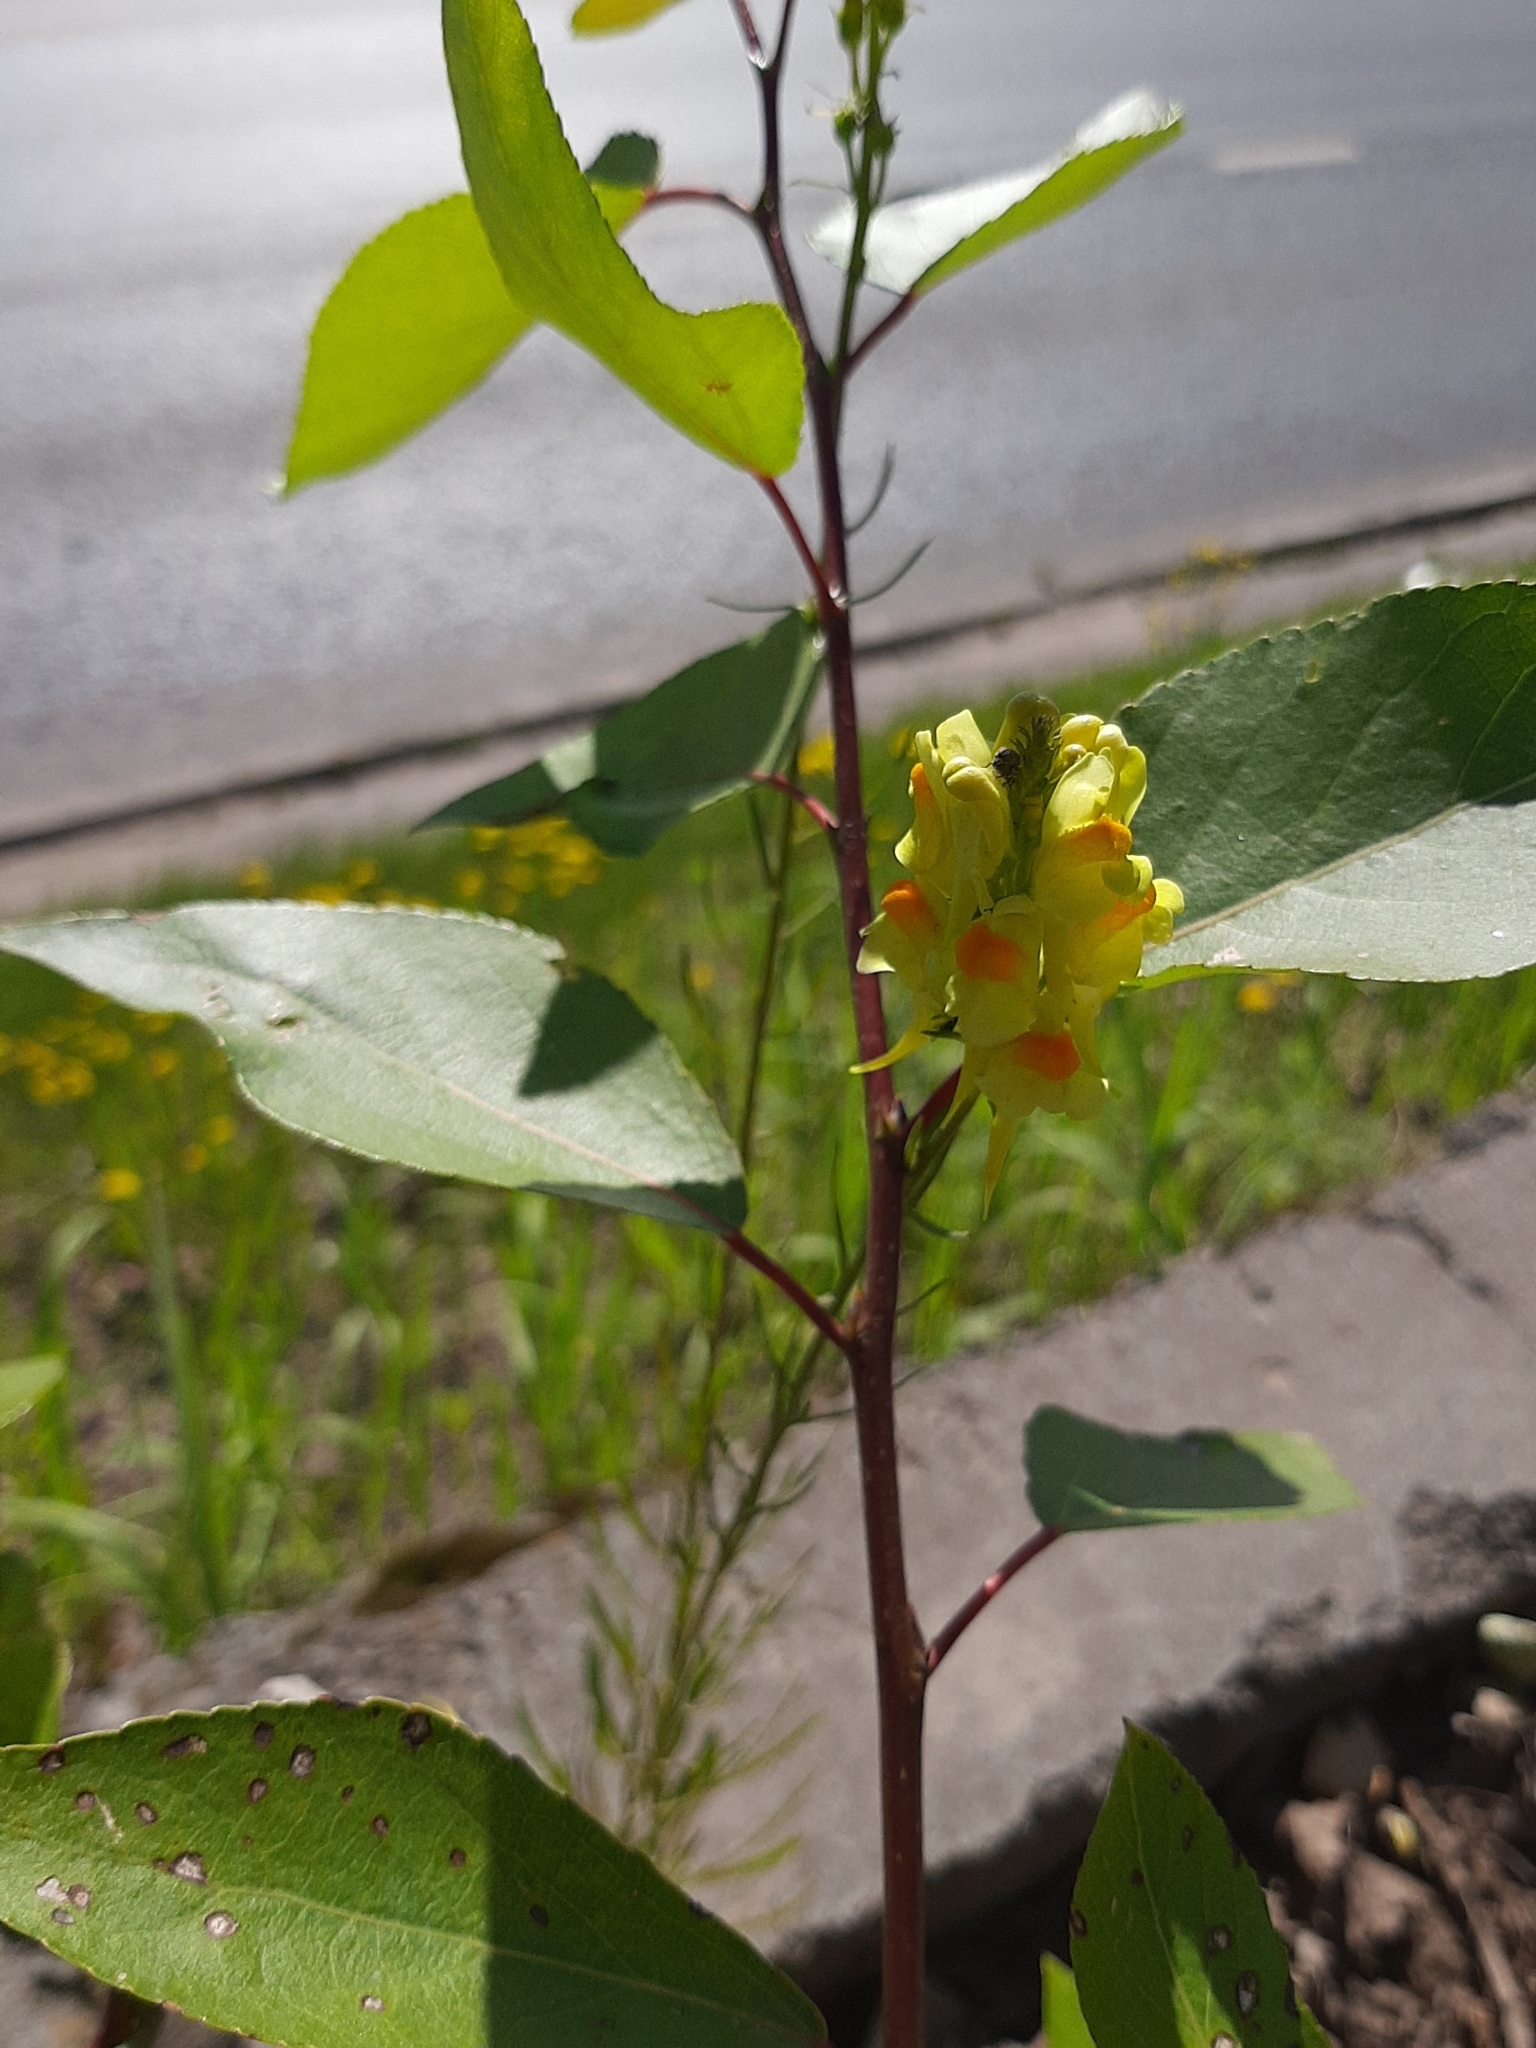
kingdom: Plantae
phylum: Tracheophyta
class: Magnoliopsida
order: Lamiales
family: Plantaginaceae
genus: Linaria
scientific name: Linaria vulgaris
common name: Butter and eggs
